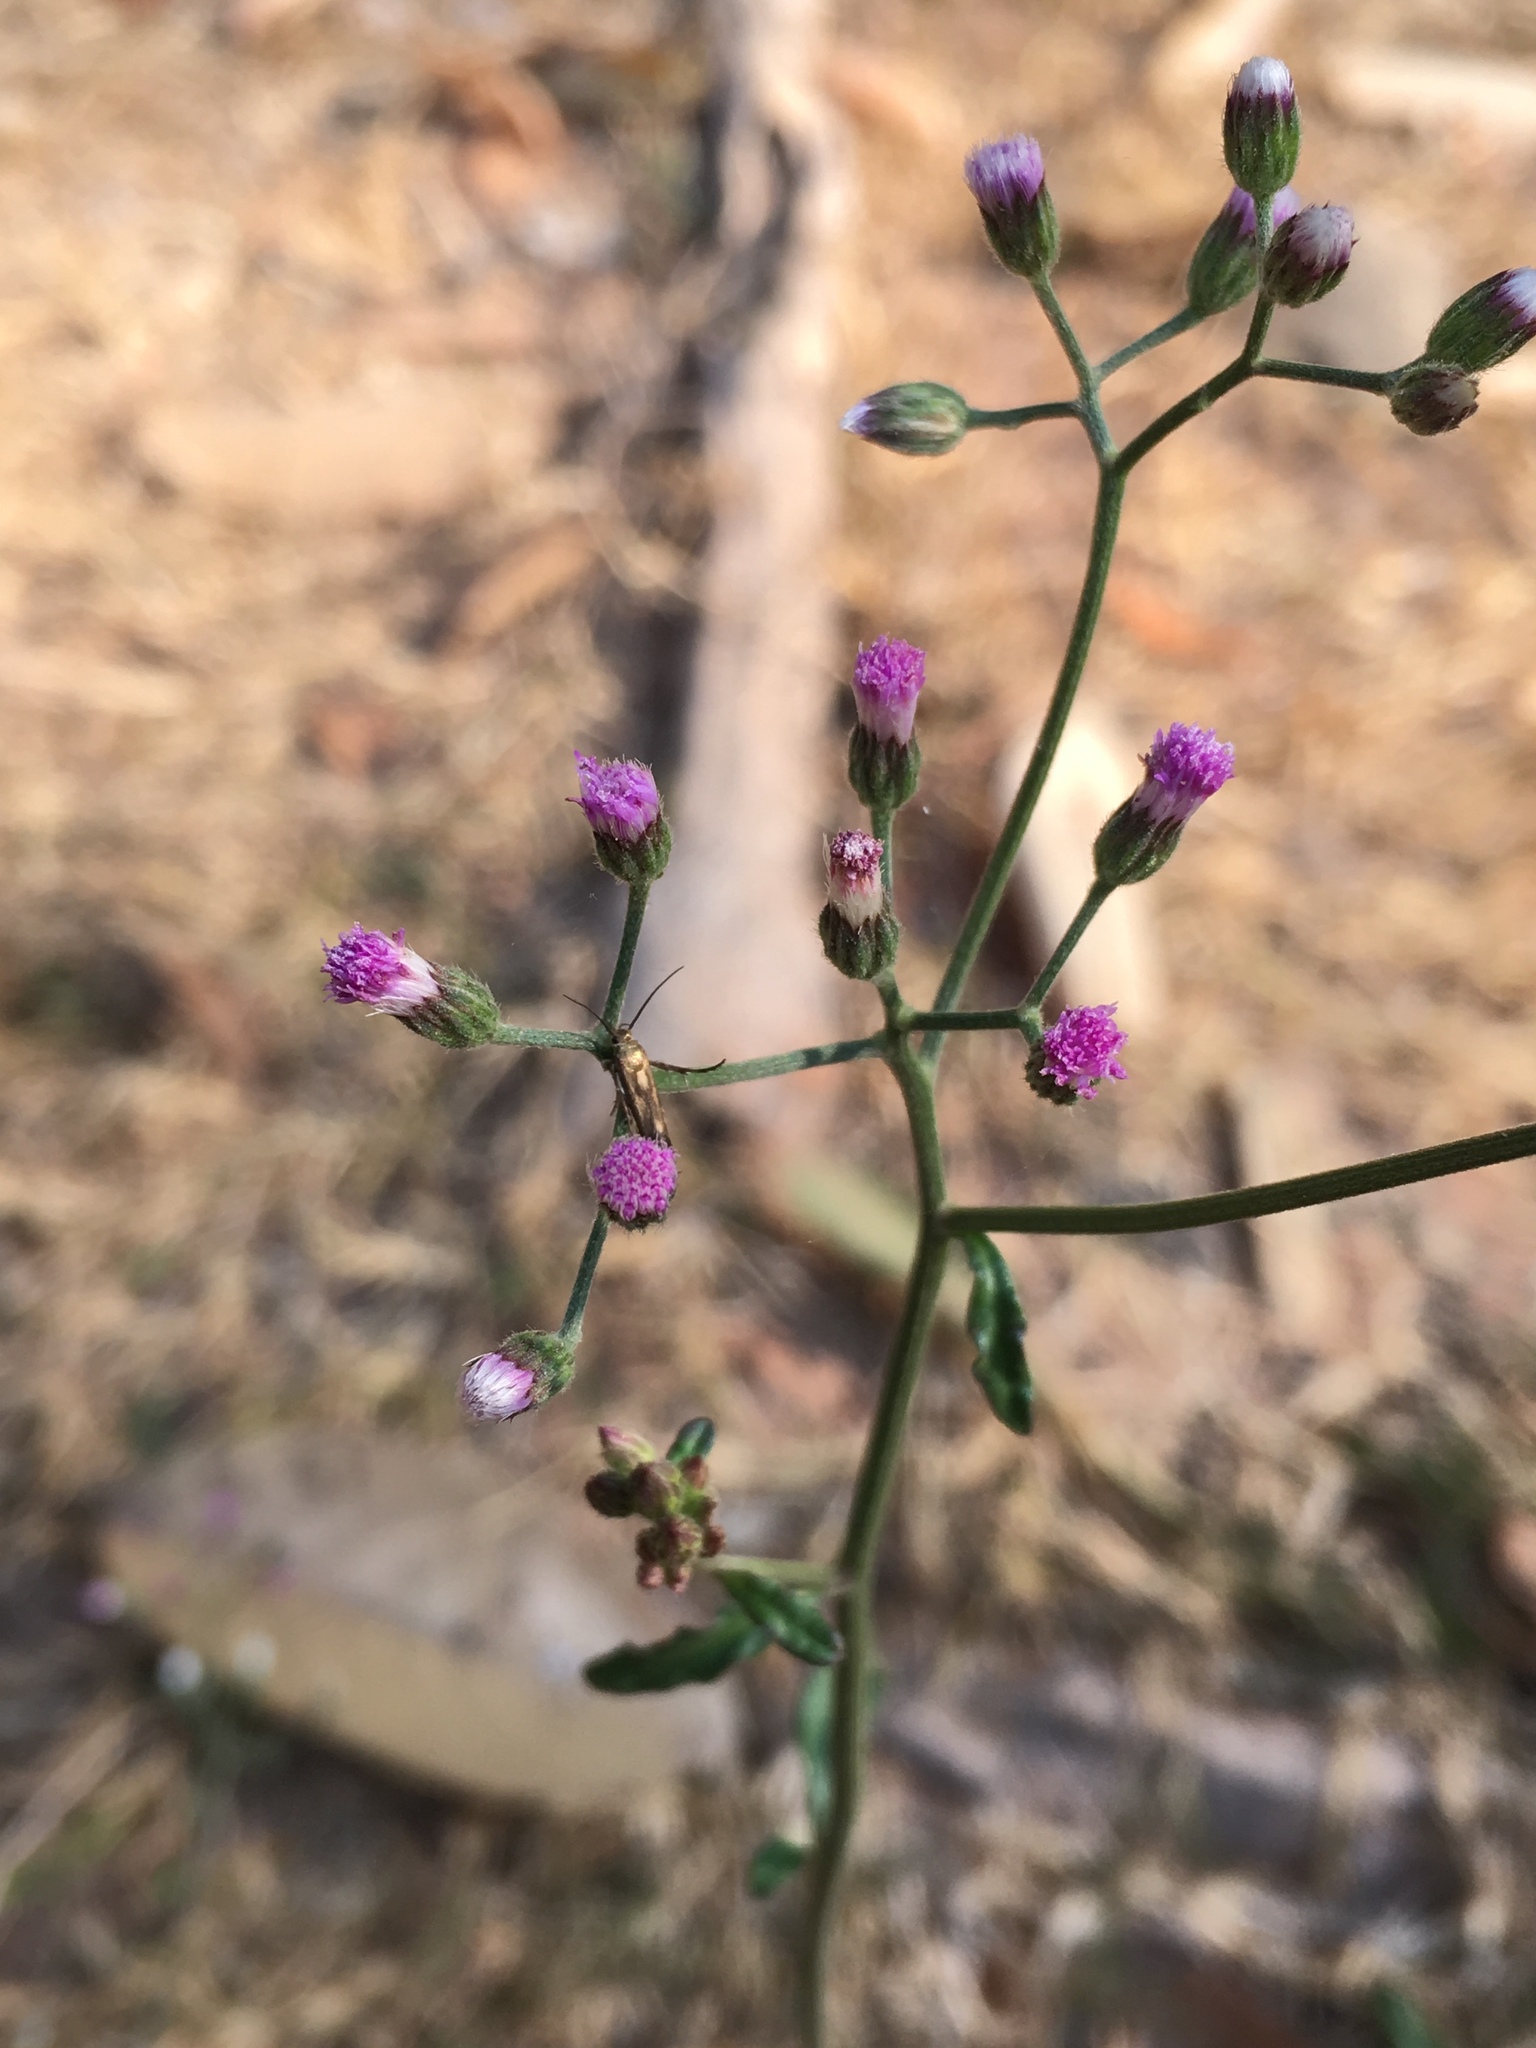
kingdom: Plantae
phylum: Tracheophyta
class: Magnoliopsida
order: Asterales
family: Asteraceae
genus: Cyanthillium
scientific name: Cyanthillium cinereum
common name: Little ironweed
